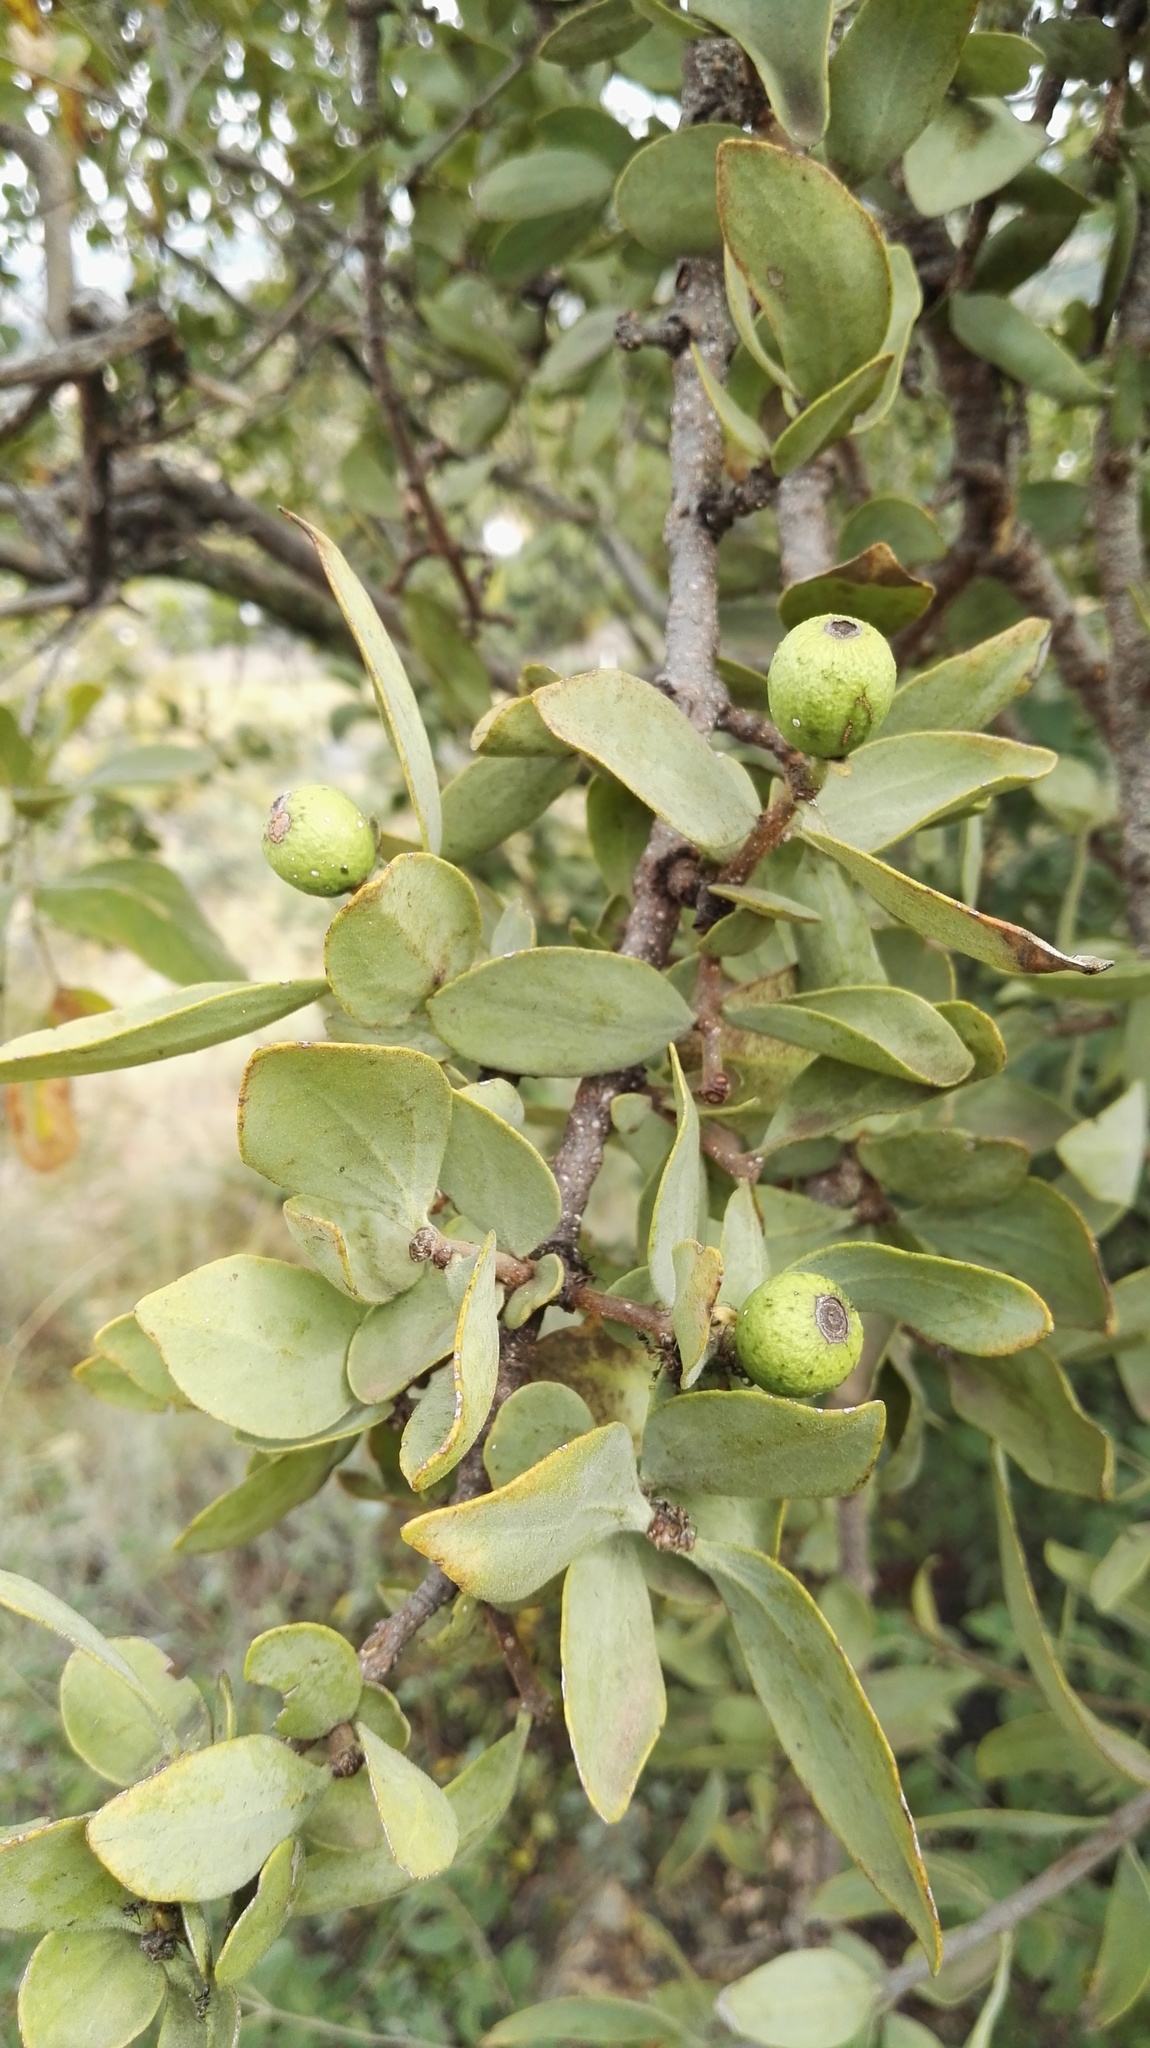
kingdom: Plantae
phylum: Tracheophyta
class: Magnoliopsida
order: Santalales
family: Loranthaceae
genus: Agelanthus
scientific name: Agelanthus natalitius
